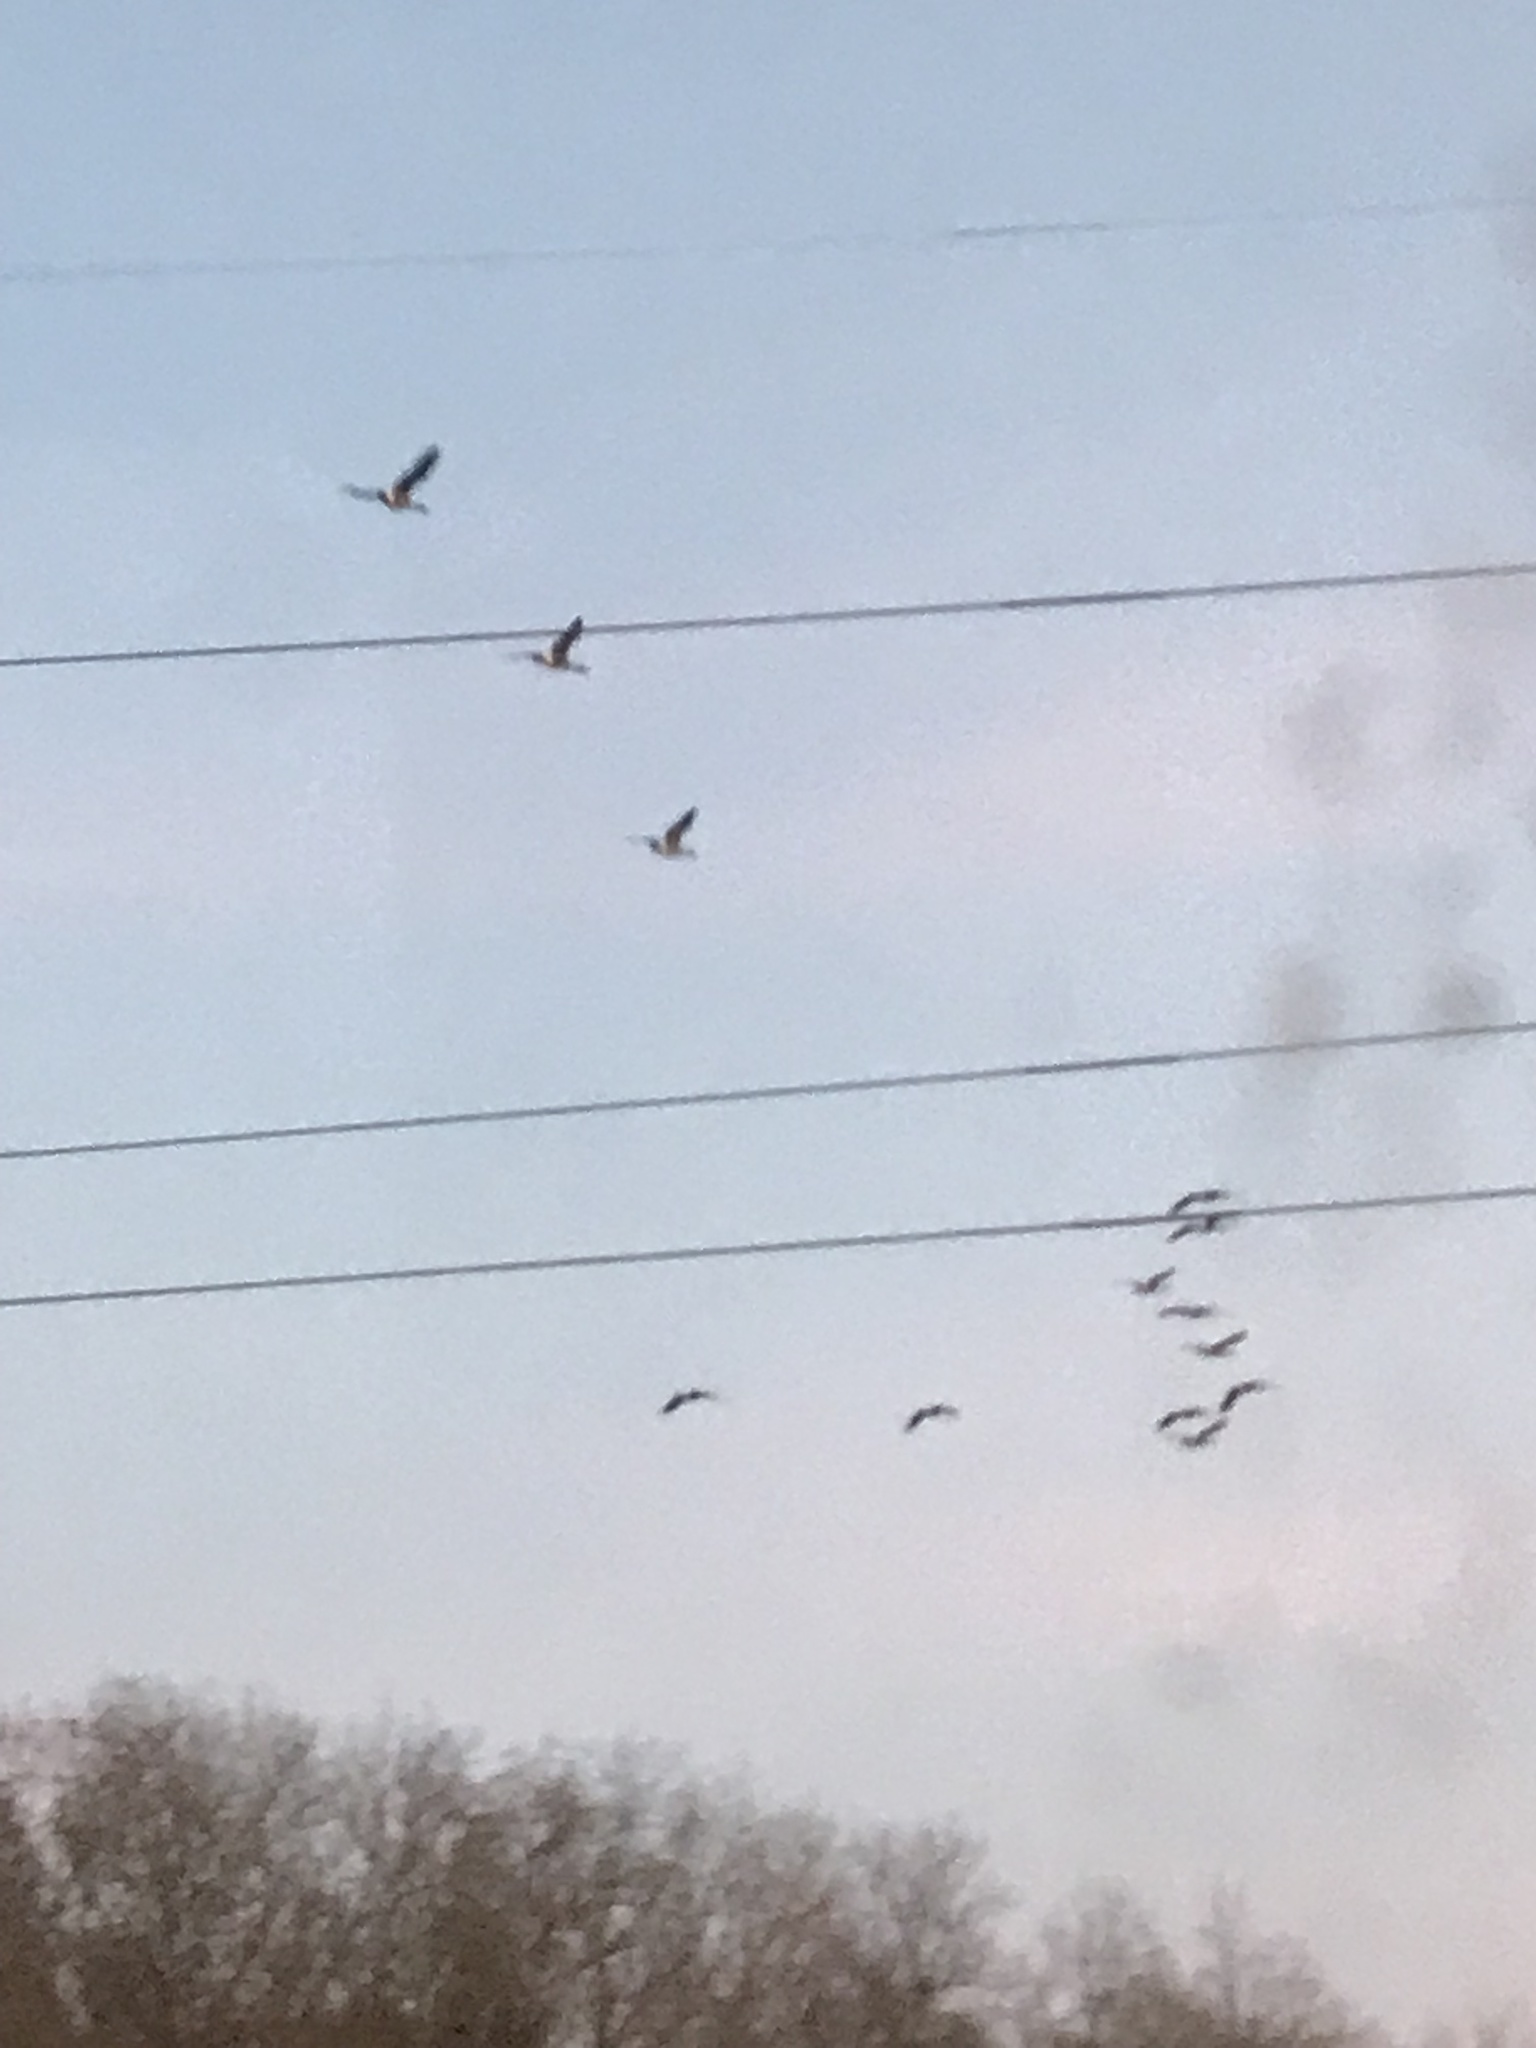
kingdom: Animalia
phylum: Chordata
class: Aves
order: Anseriformes
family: Anatidae
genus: Branta
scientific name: Branta canadensis
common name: Canada goose
